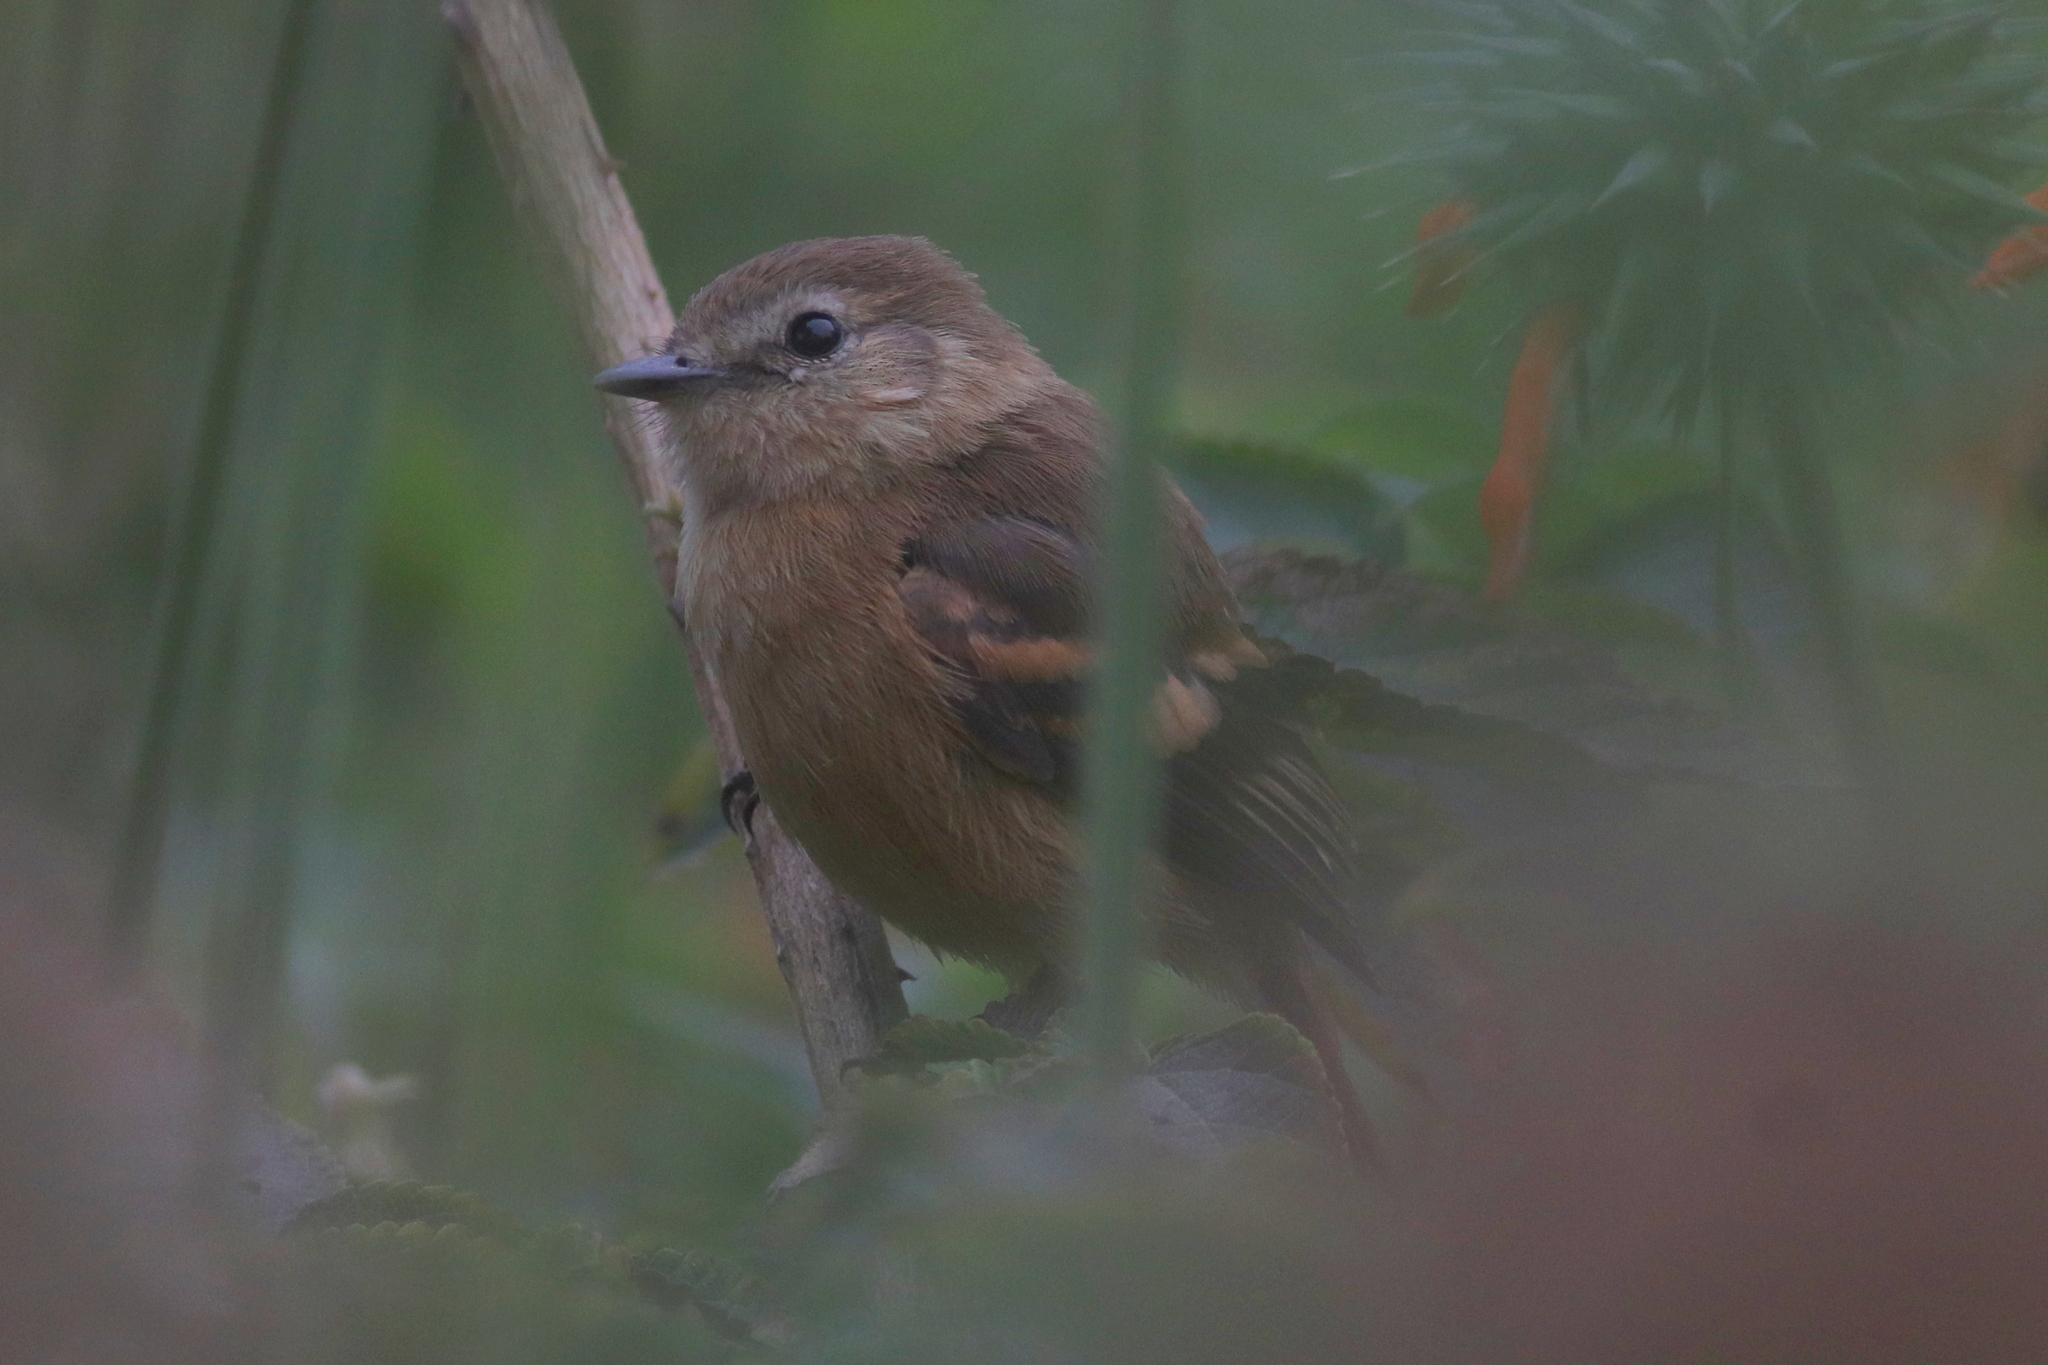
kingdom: Animalia
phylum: Chordata
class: Aves
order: Passeriformes
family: Tyrannidae
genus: Myiophobus
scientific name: Myiophobus fasciatus
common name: Bran-colored flycatcher
